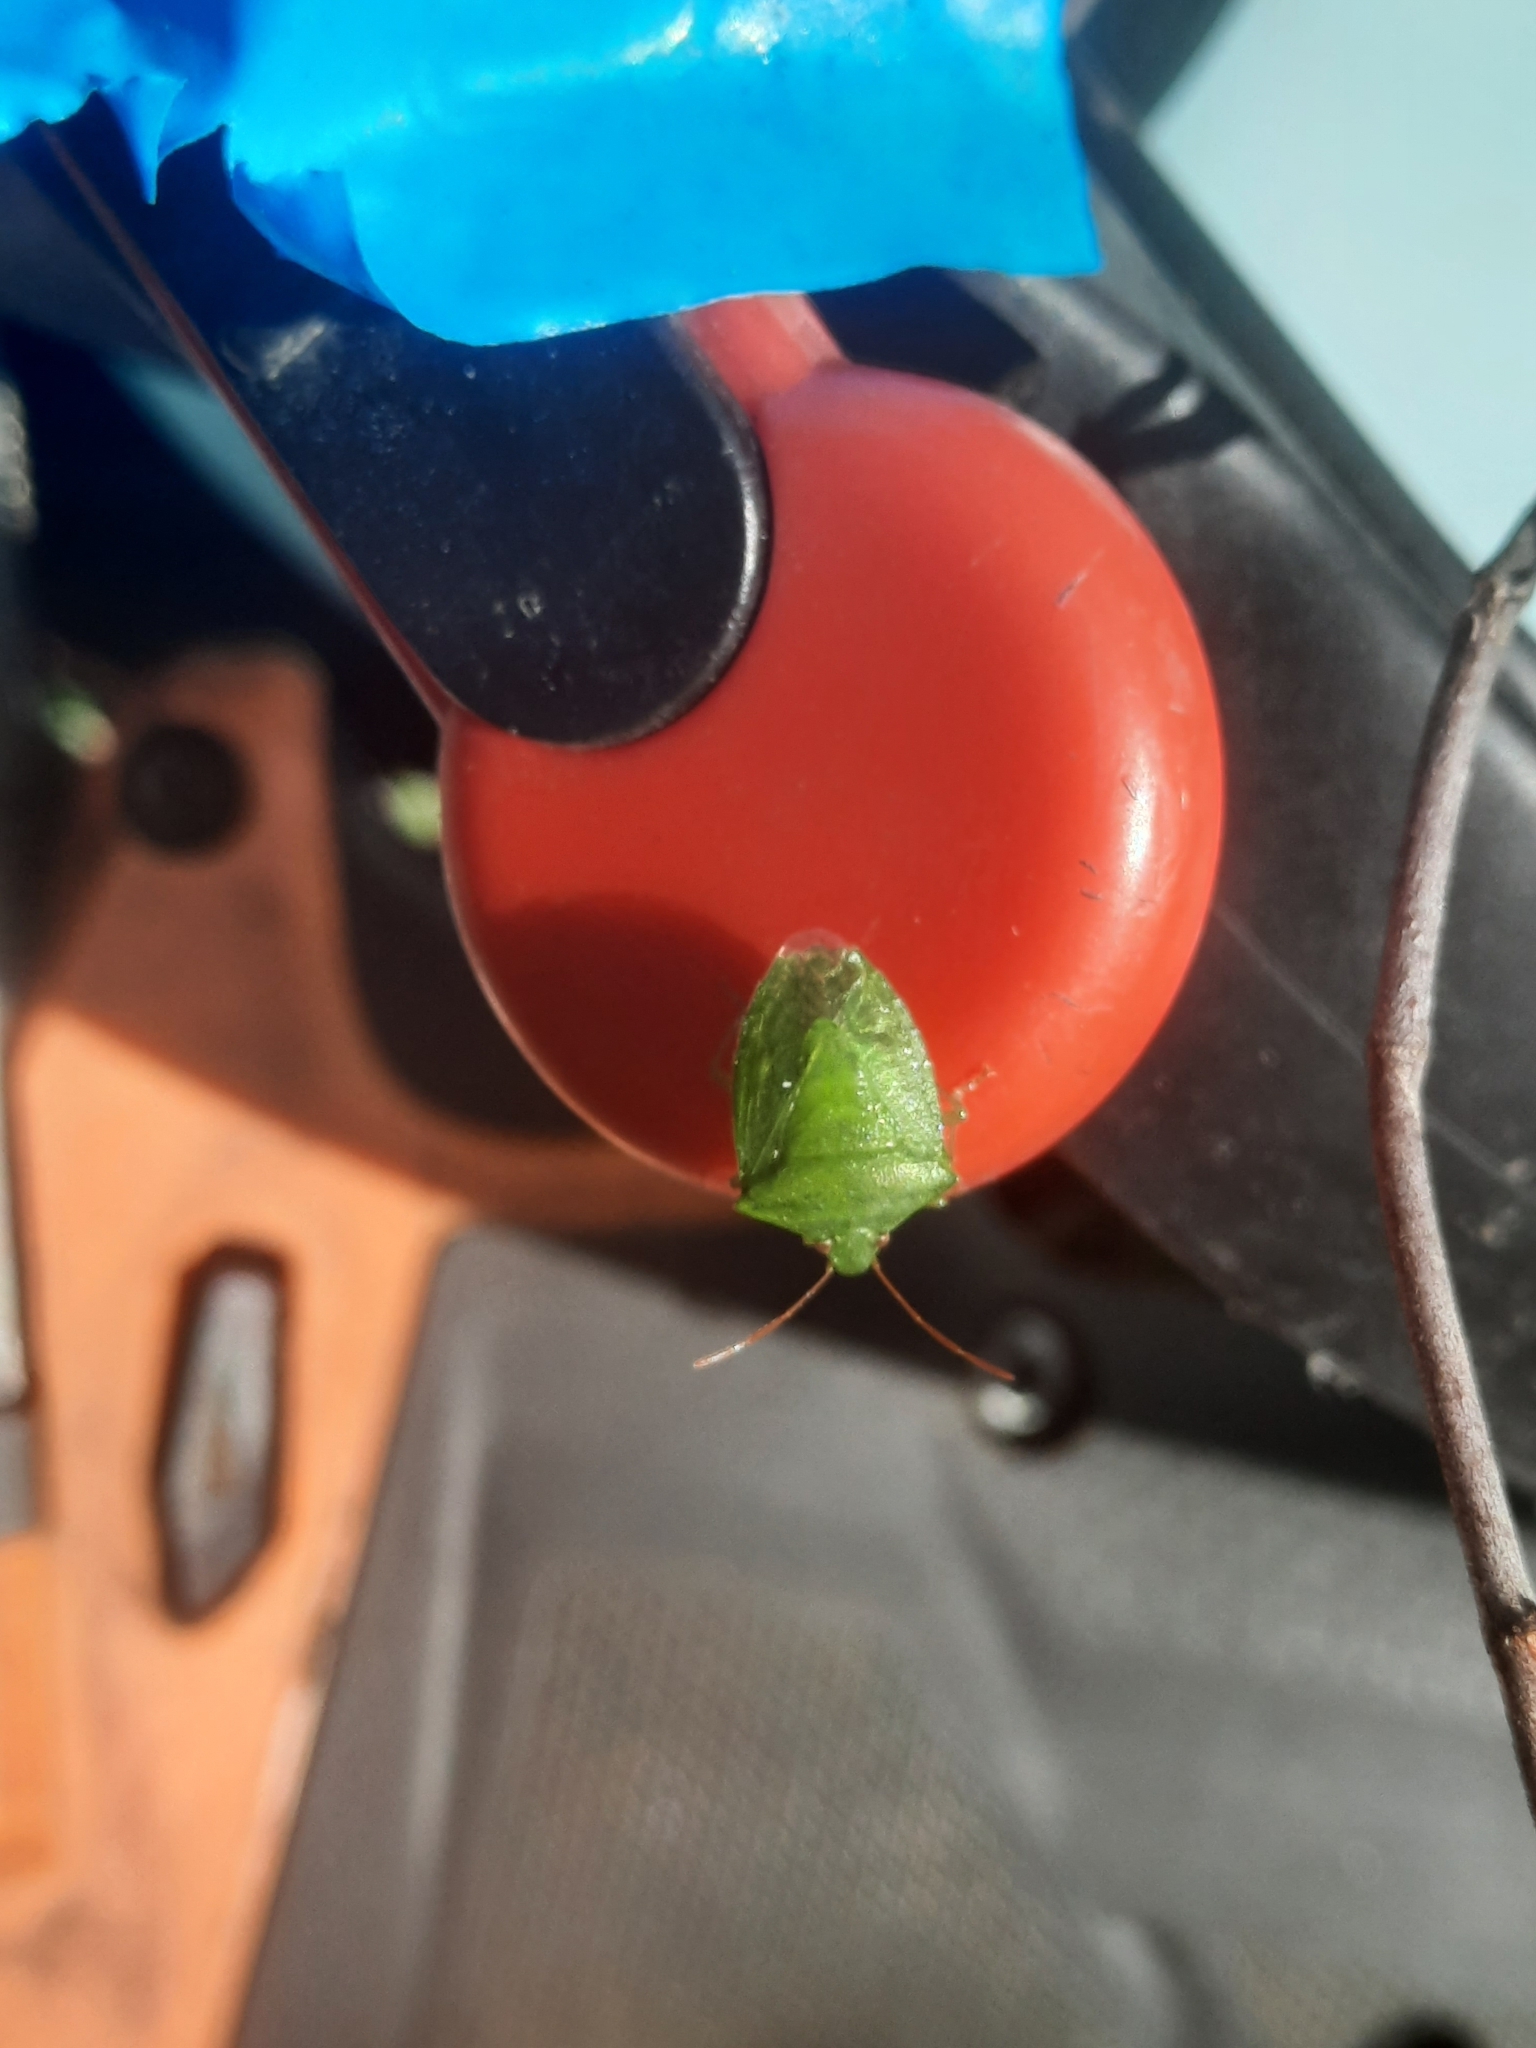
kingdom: Animalia
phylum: Arthropoda
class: Insecta
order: Hemiptera
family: Pentatomidae
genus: Cuspicona
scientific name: Cuspicona simplex
